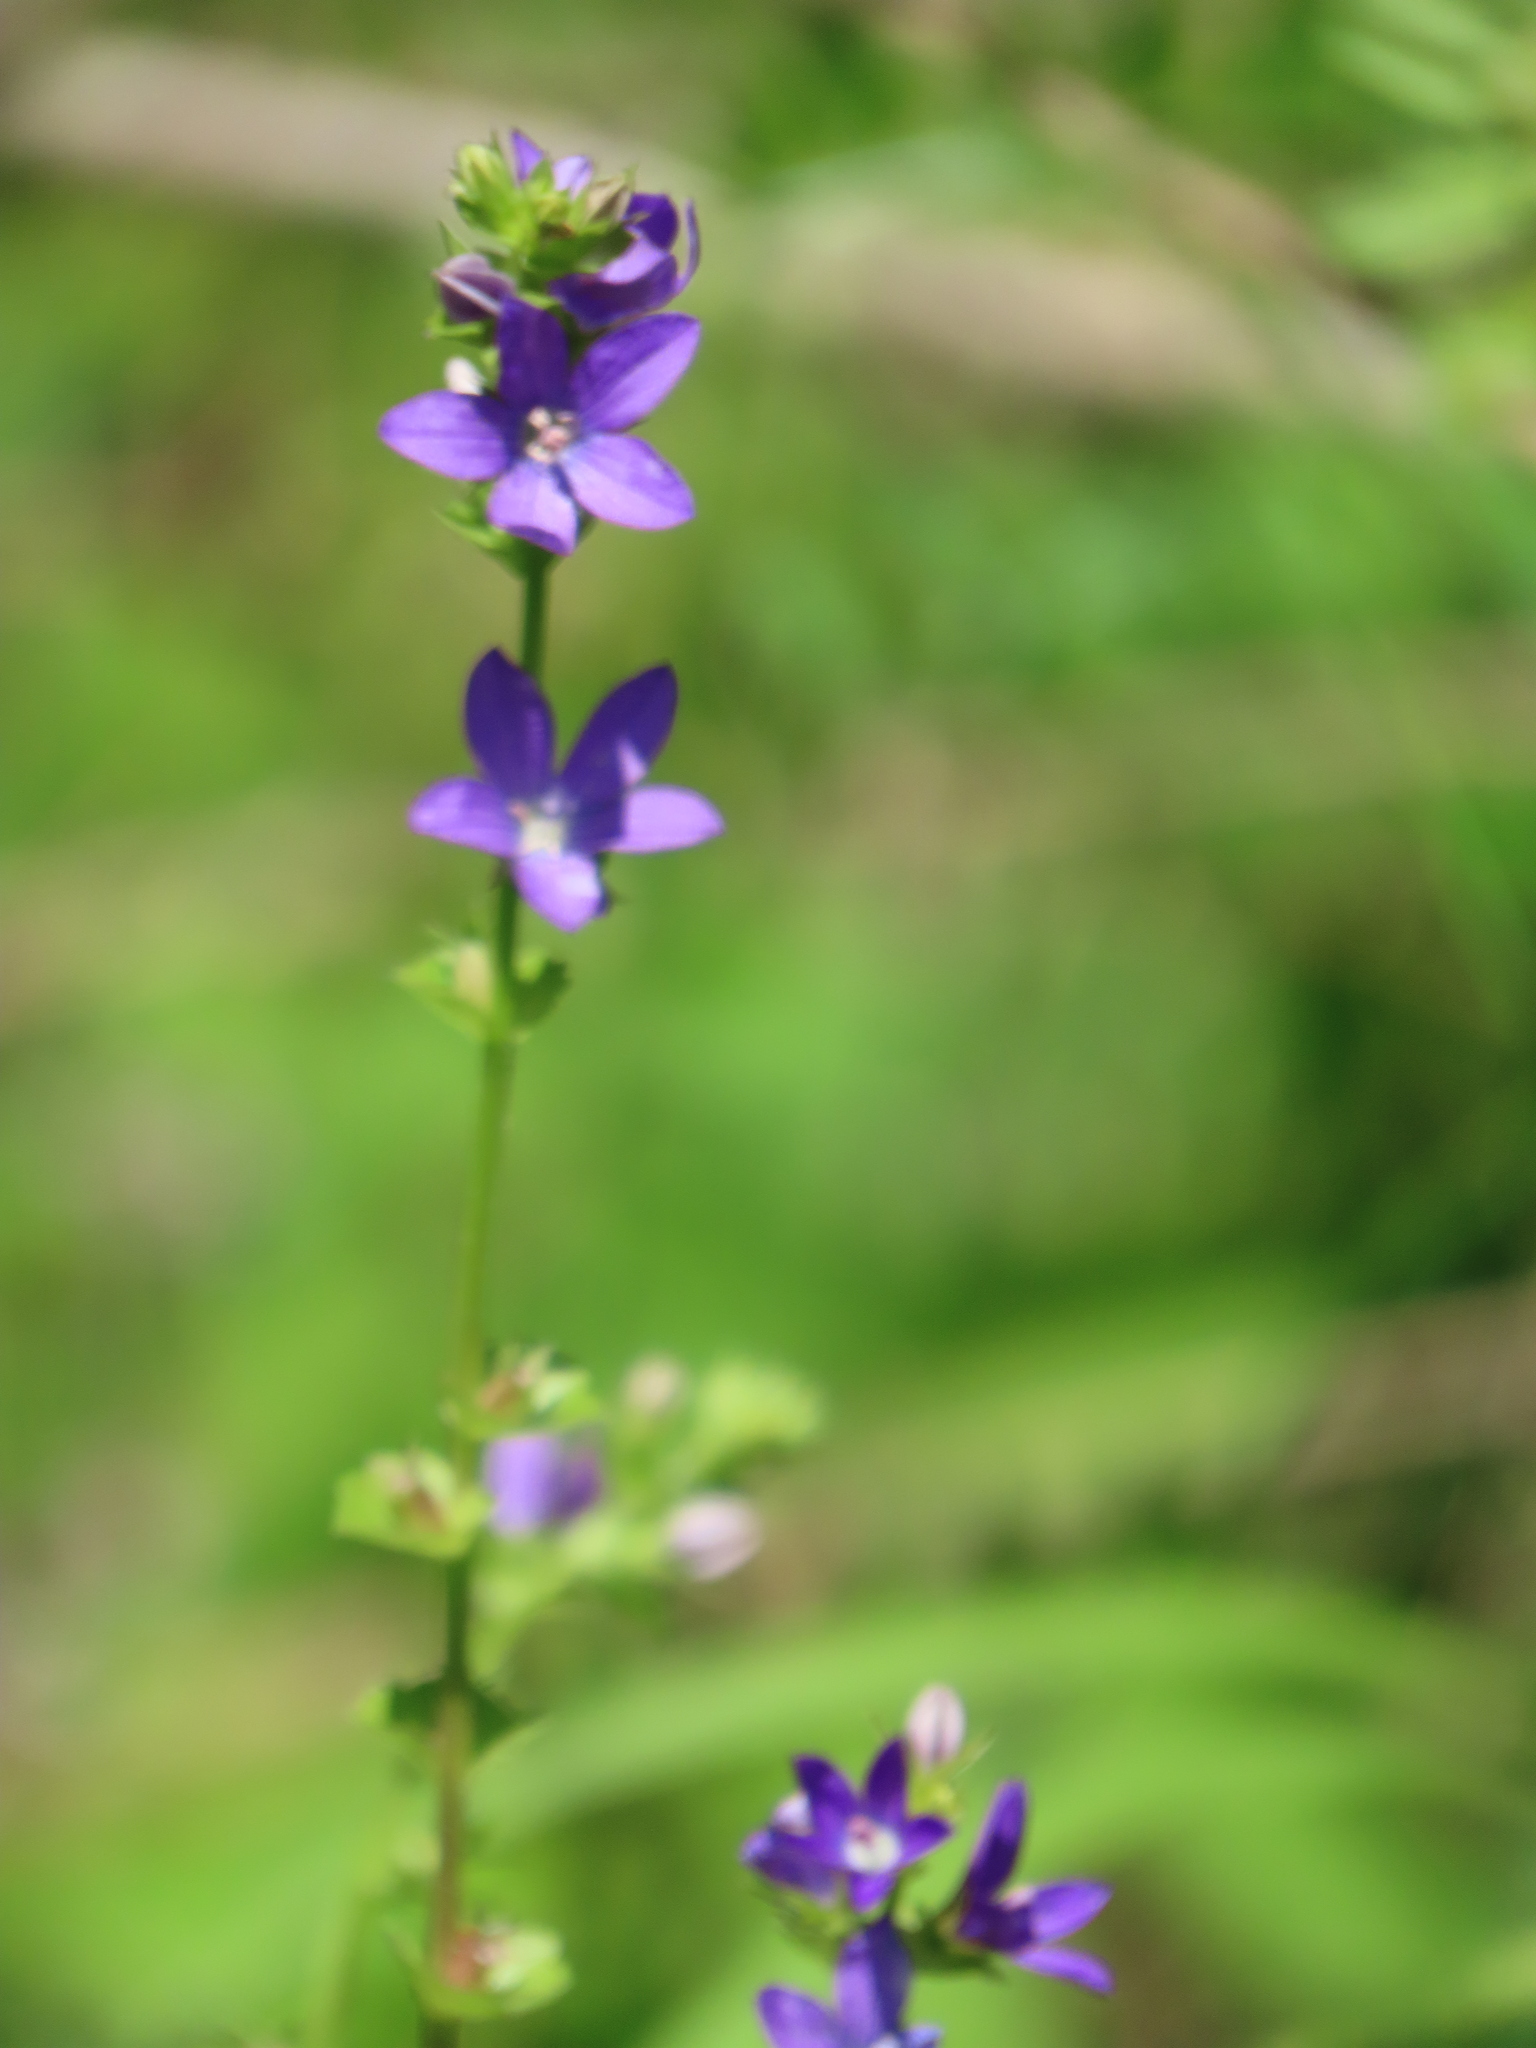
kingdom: Plantae
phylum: Tracheophyta
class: Magnoliopsida
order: Asterales
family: Campanulaceae
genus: Triodanis
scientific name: Triodanis perfoliata
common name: Clasping venus' looking-glass
